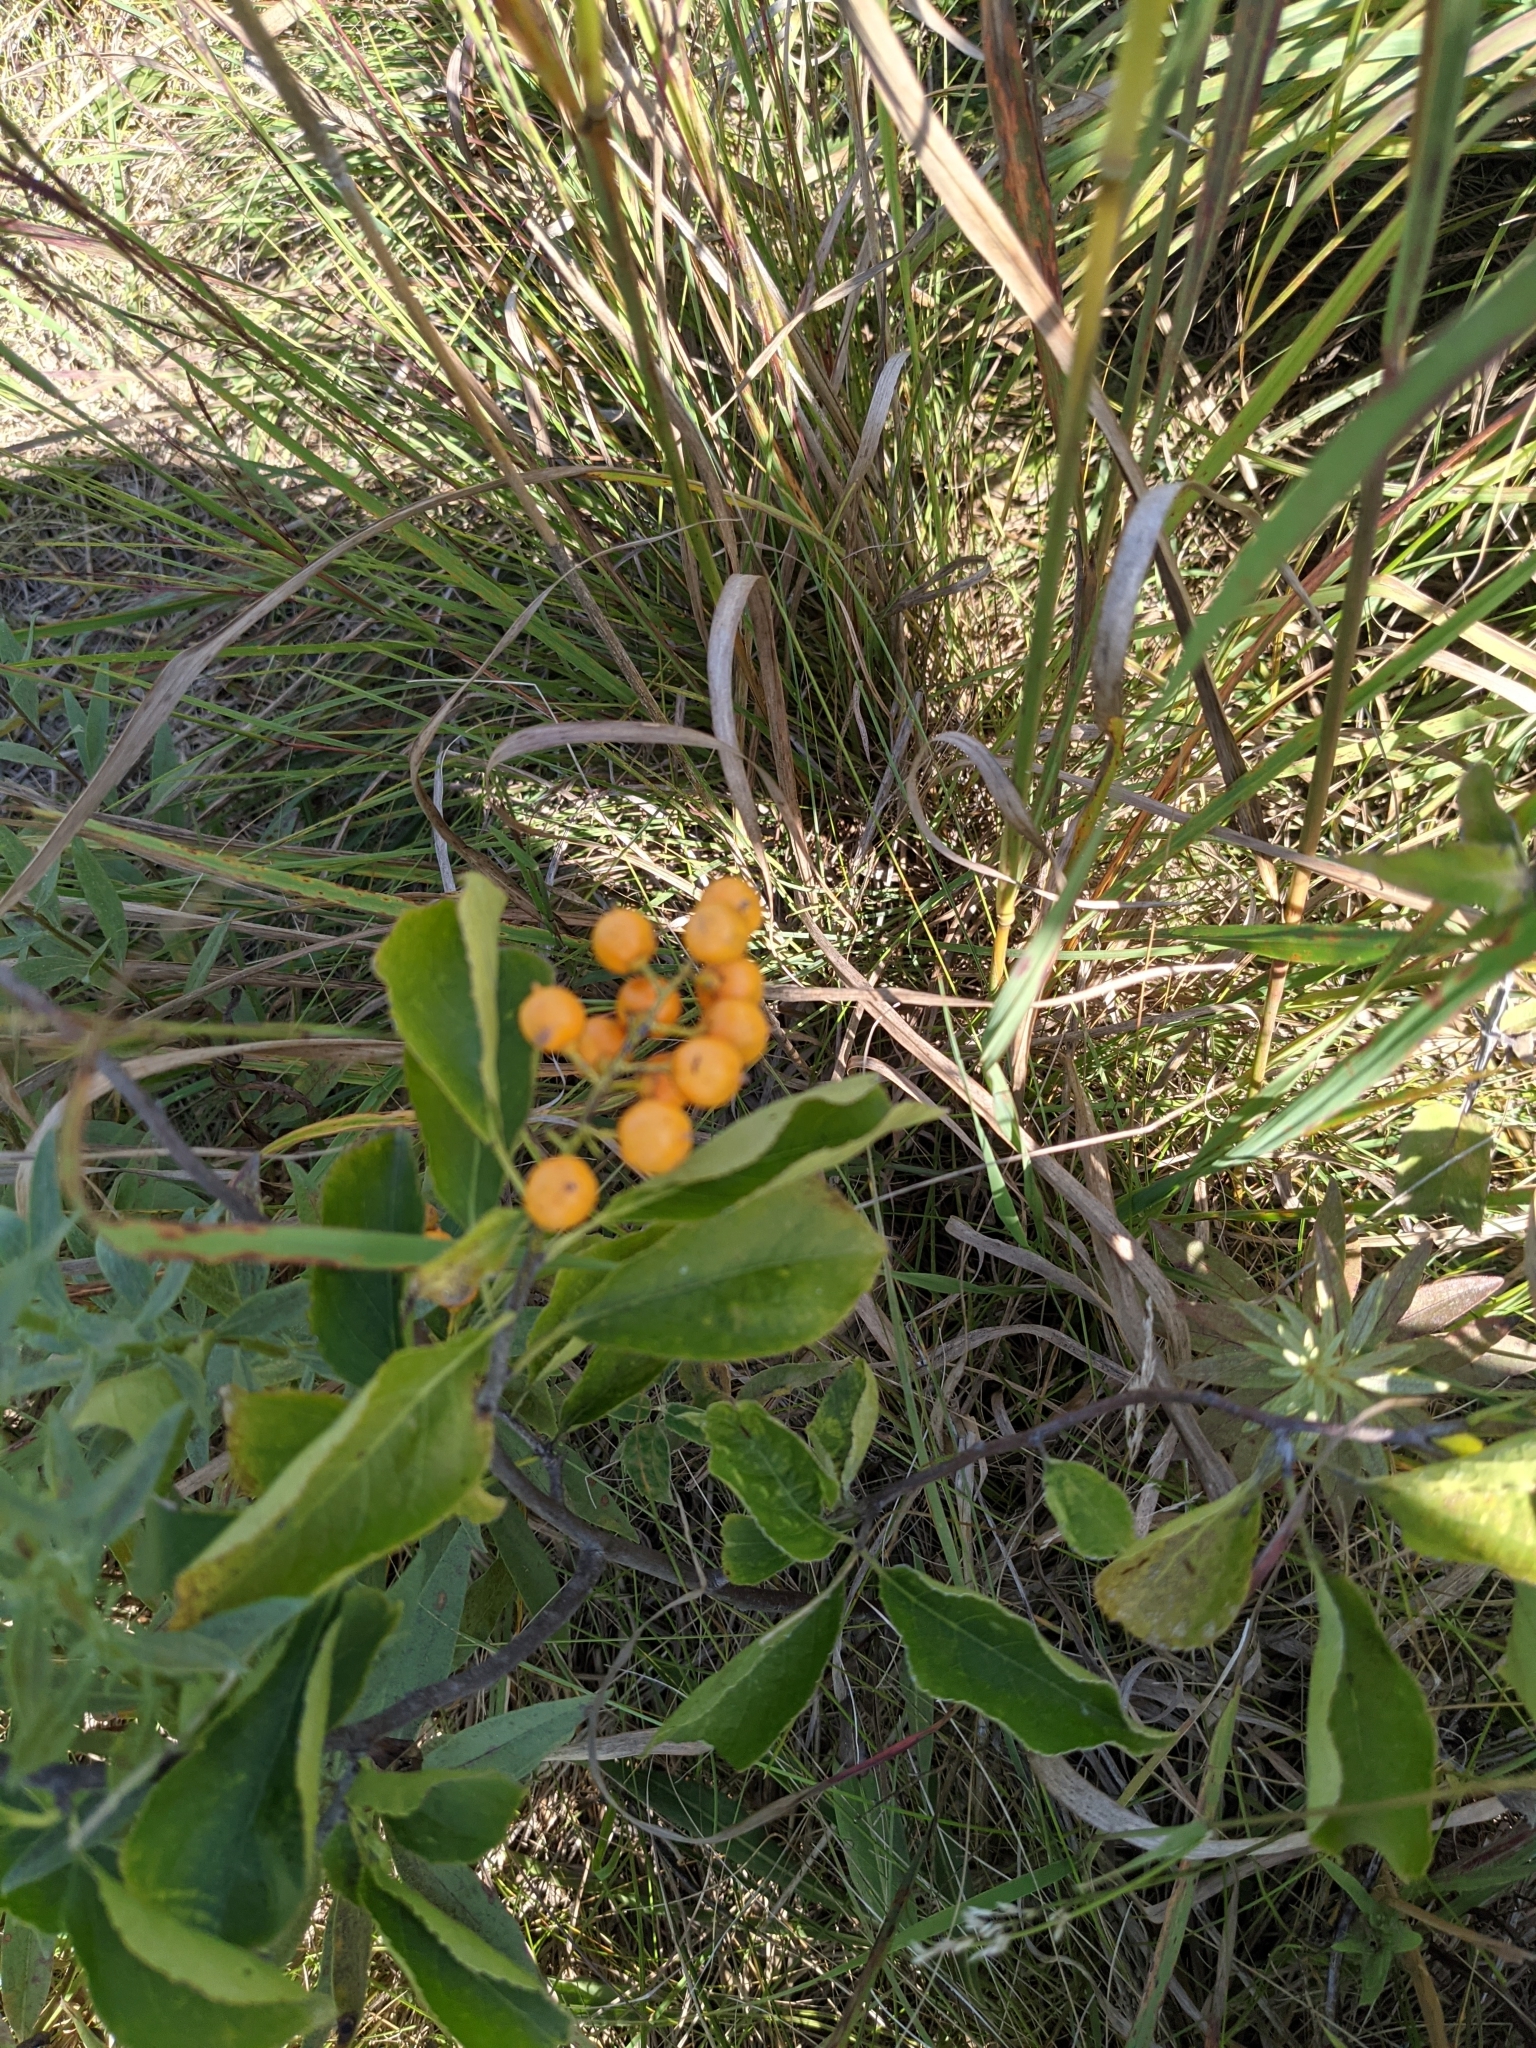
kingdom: Plantae
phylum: Tracheophyta
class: Magnoliopsida
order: Celastrales
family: Celastraceae
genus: Celastrus
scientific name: Celastrus scandens
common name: American bittersweet
